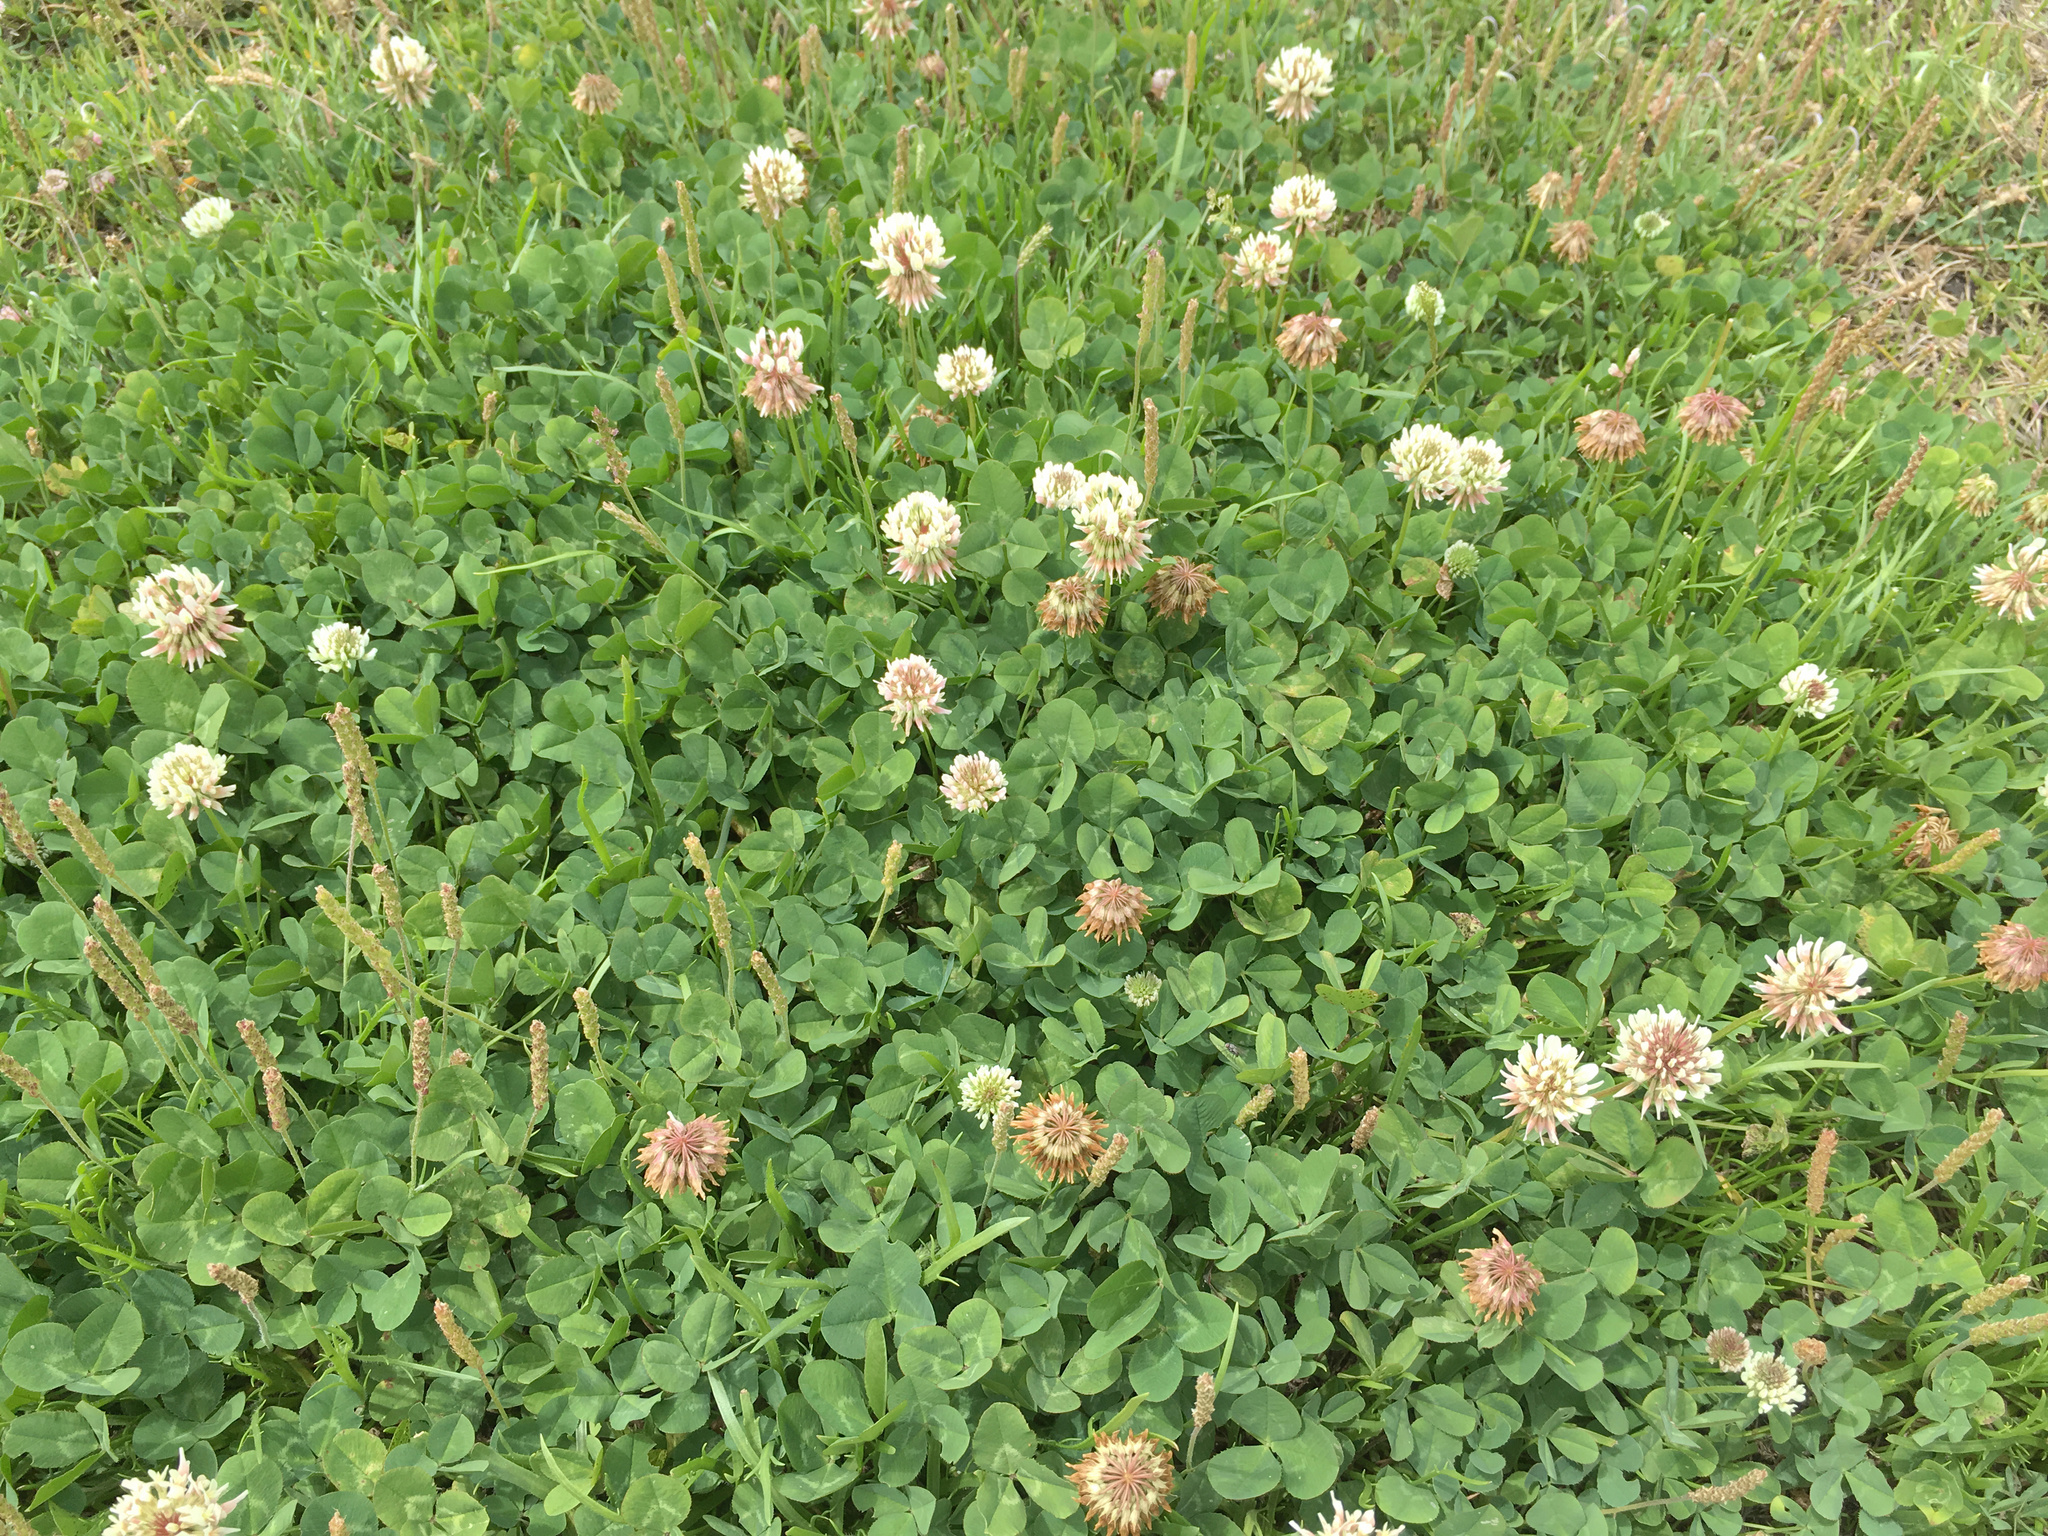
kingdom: Plantae
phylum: Tracheophyta
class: Magnoliopsida
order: Fabales
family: Fabaceae
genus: Trifolium
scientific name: Trifolium repens
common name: White clover
